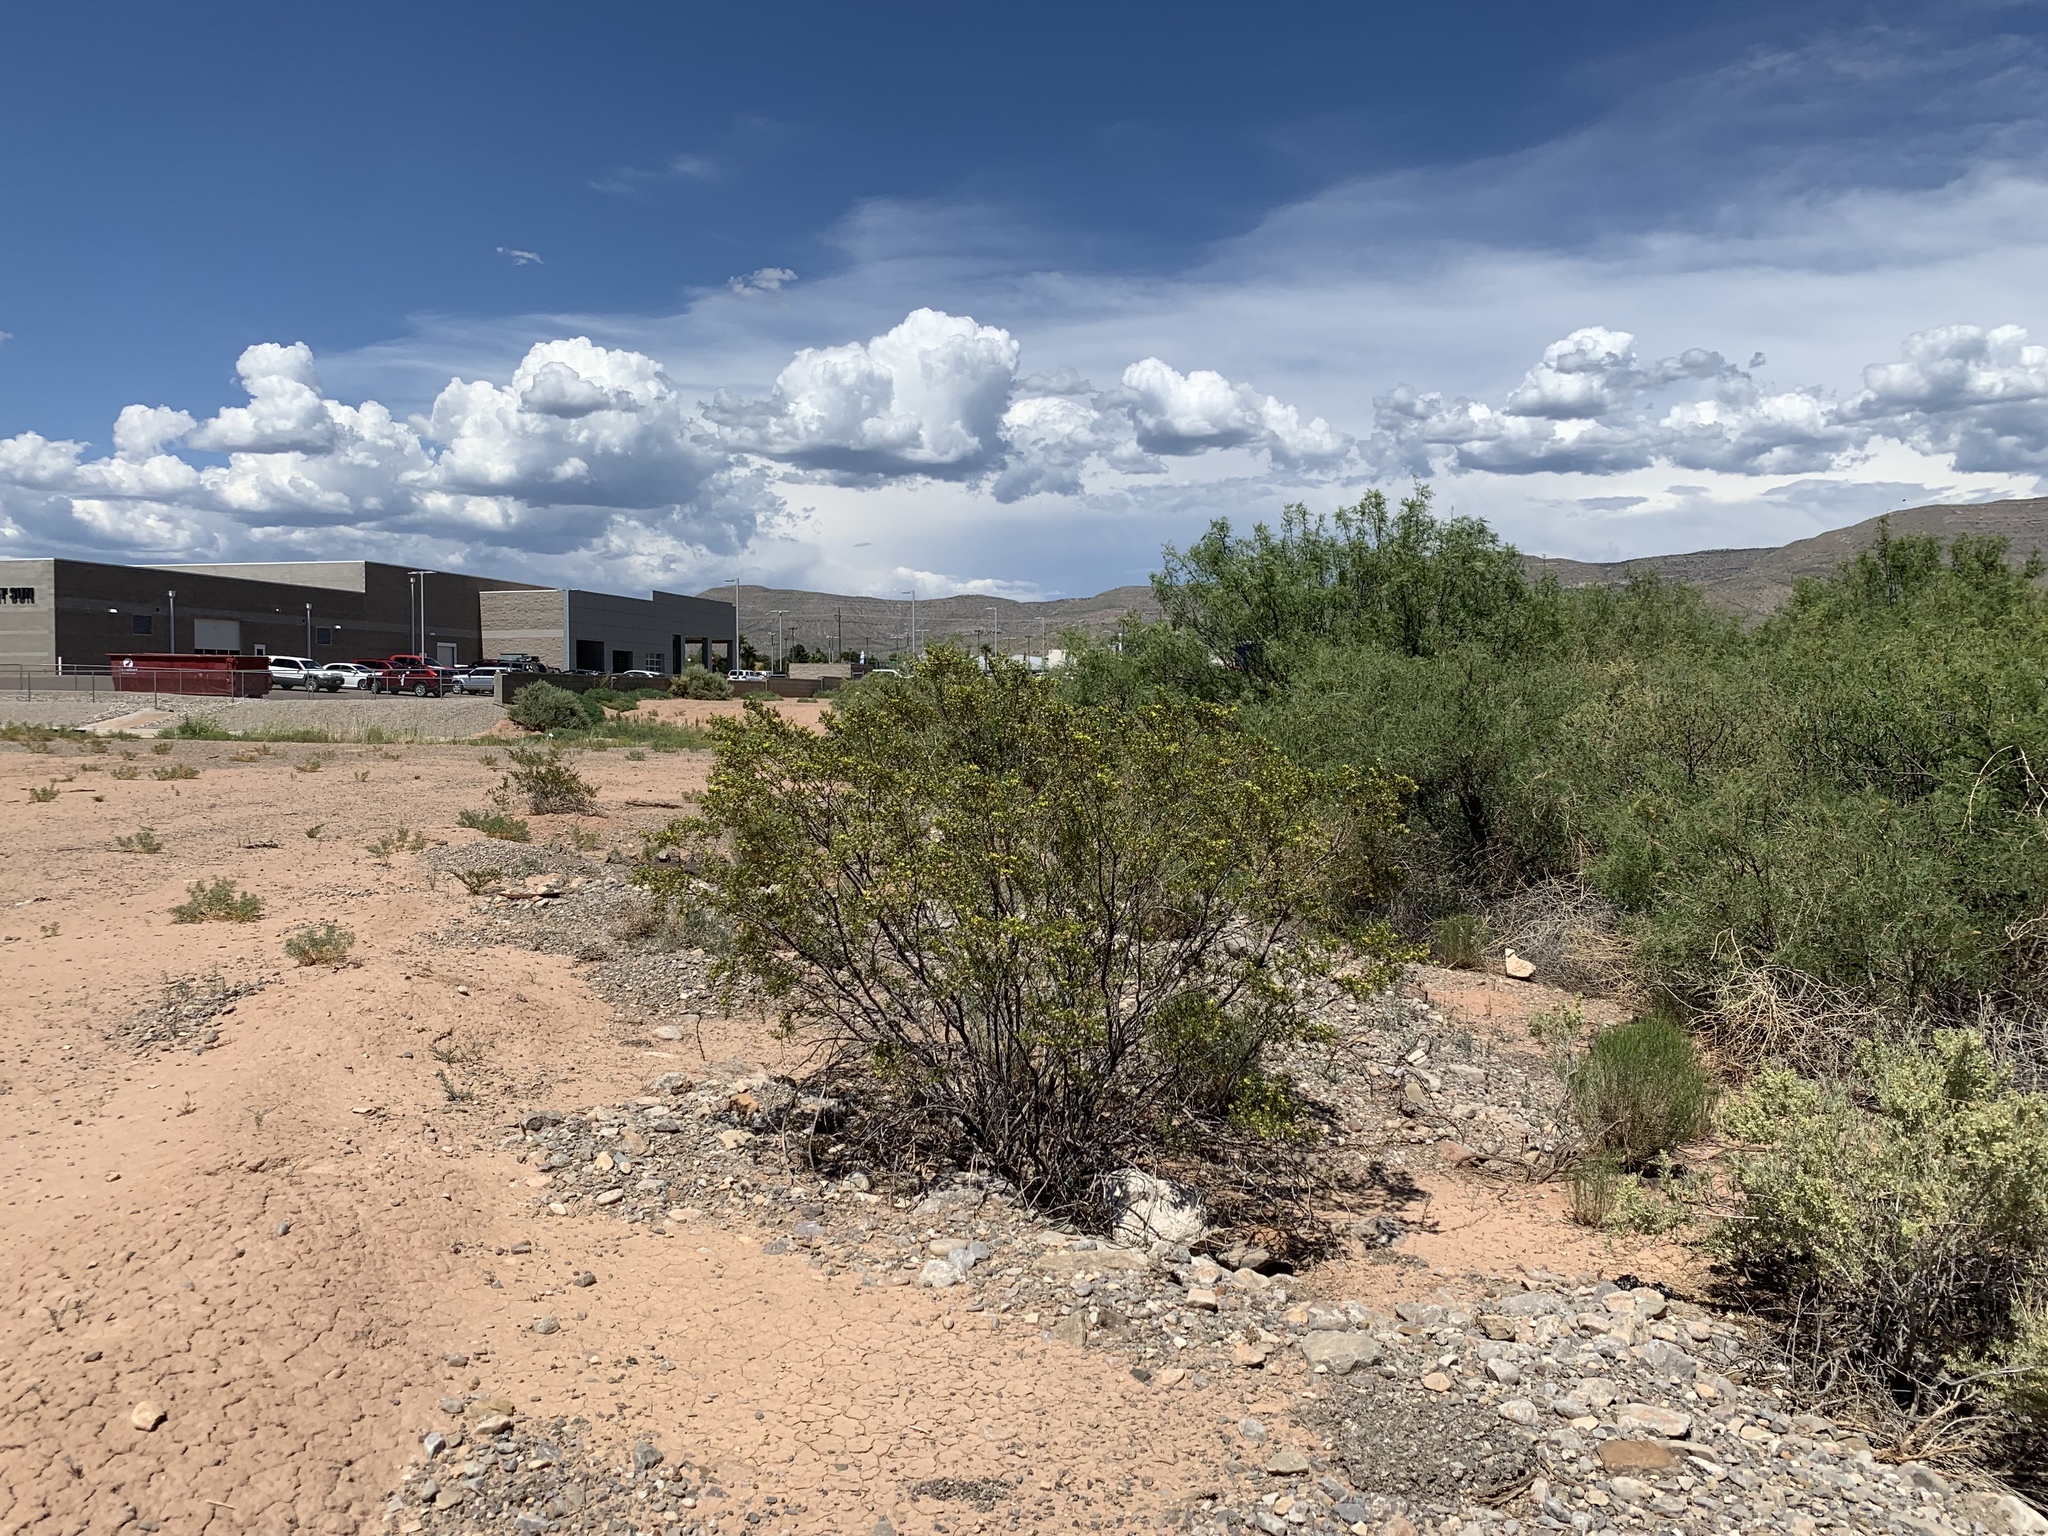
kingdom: Plantae
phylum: Tracheophyta
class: Magnoliopsida
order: Zygophyllales
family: Zygophyllaceae
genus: Larrea
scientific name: Larrea tridentata
